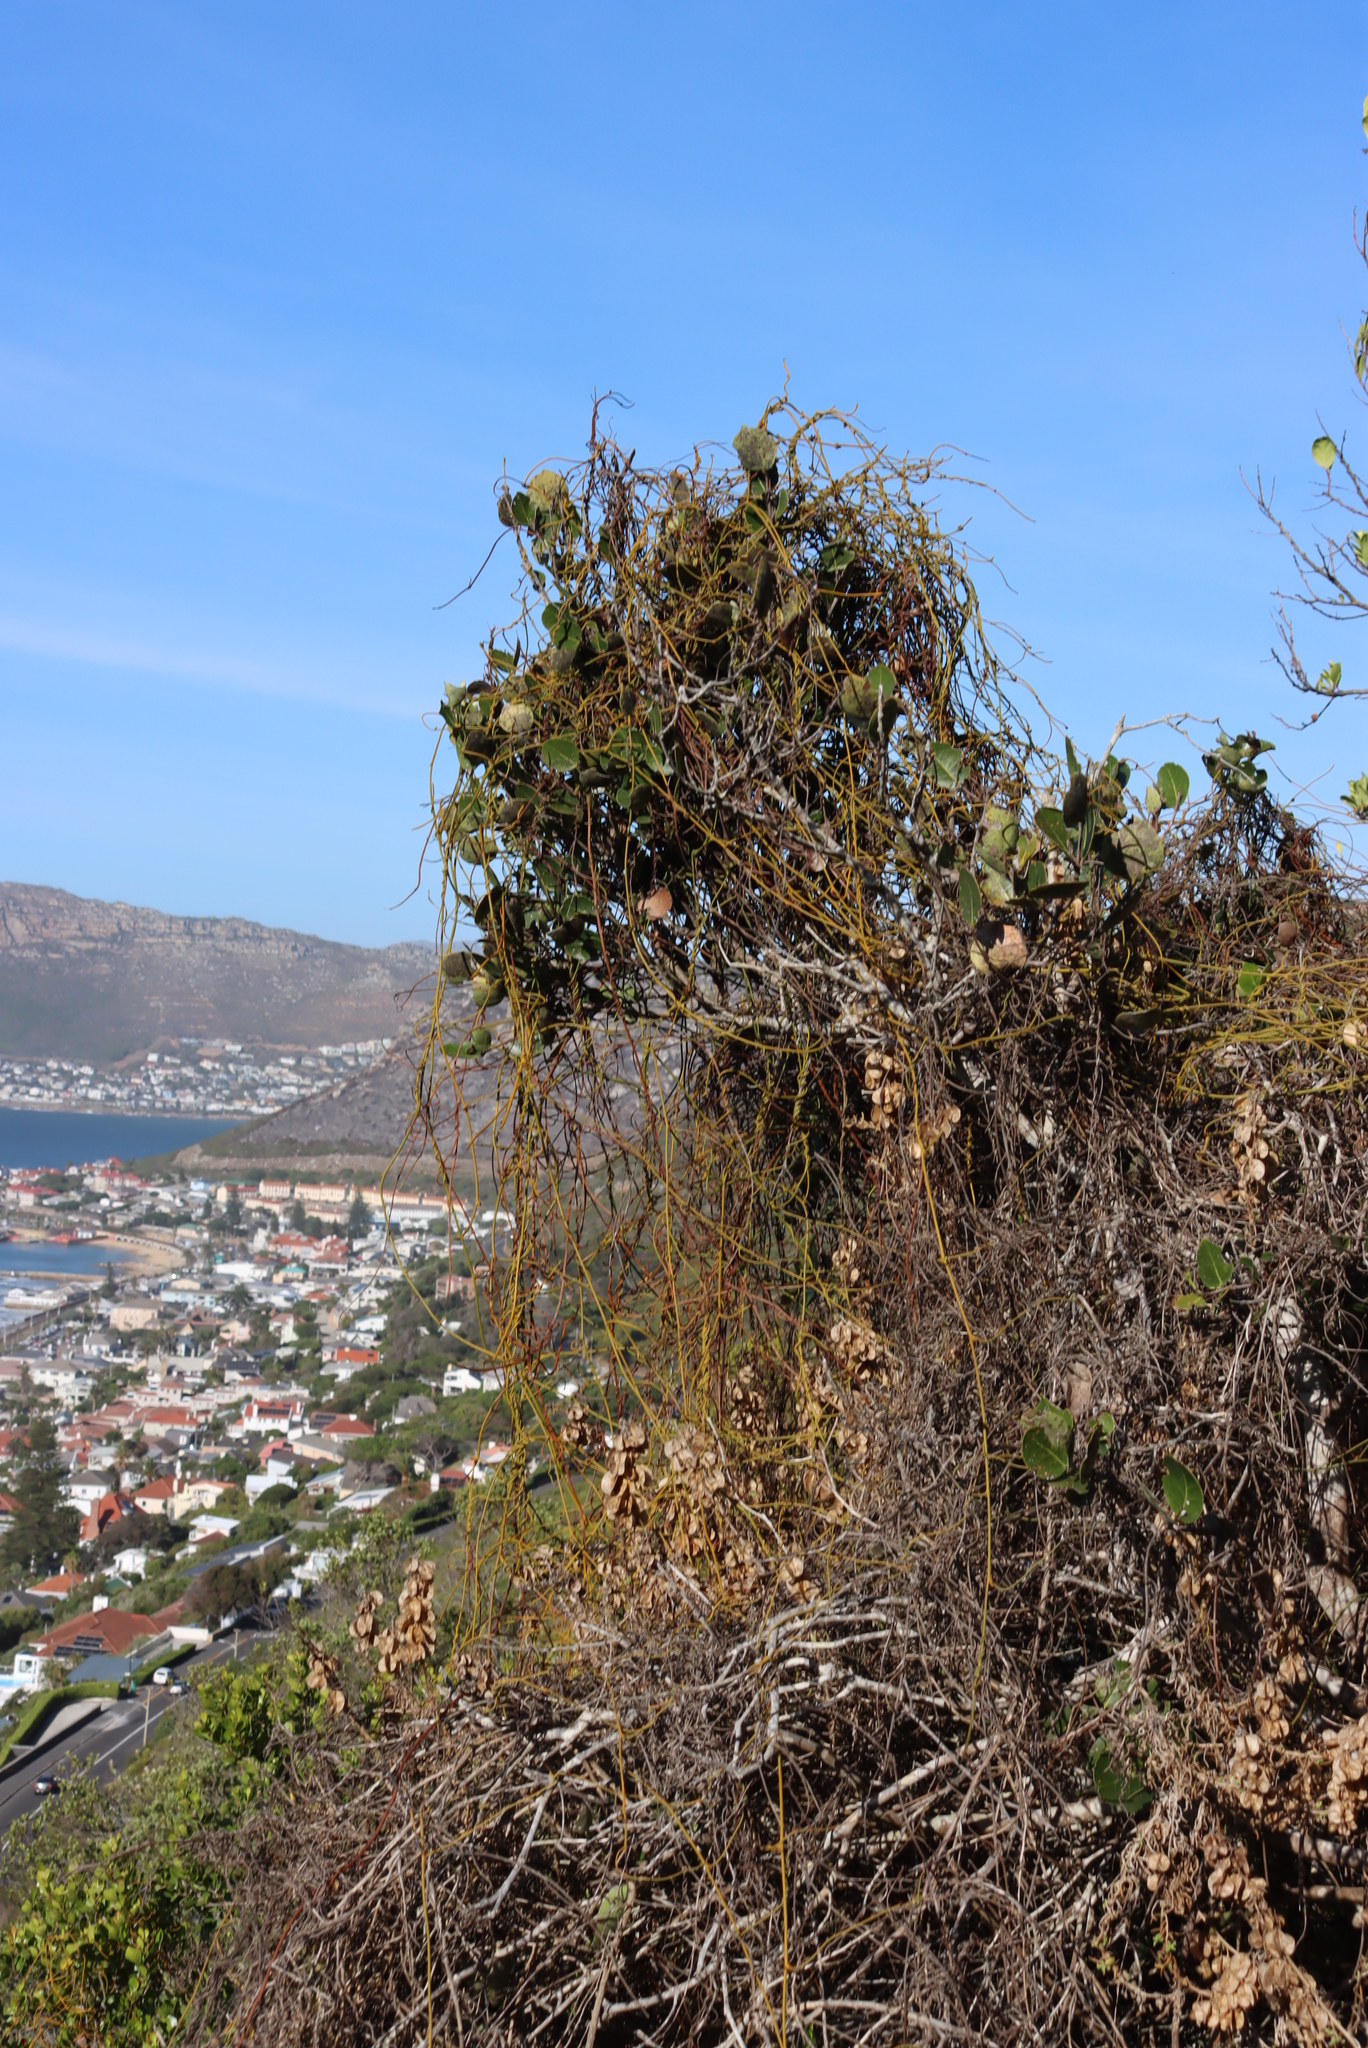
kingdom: Plantae
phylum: Tracheophyta
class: Magnoliopsida
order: Laurales
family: Lauraceae
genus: Cassytha
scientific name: Cassytha ciliolata
